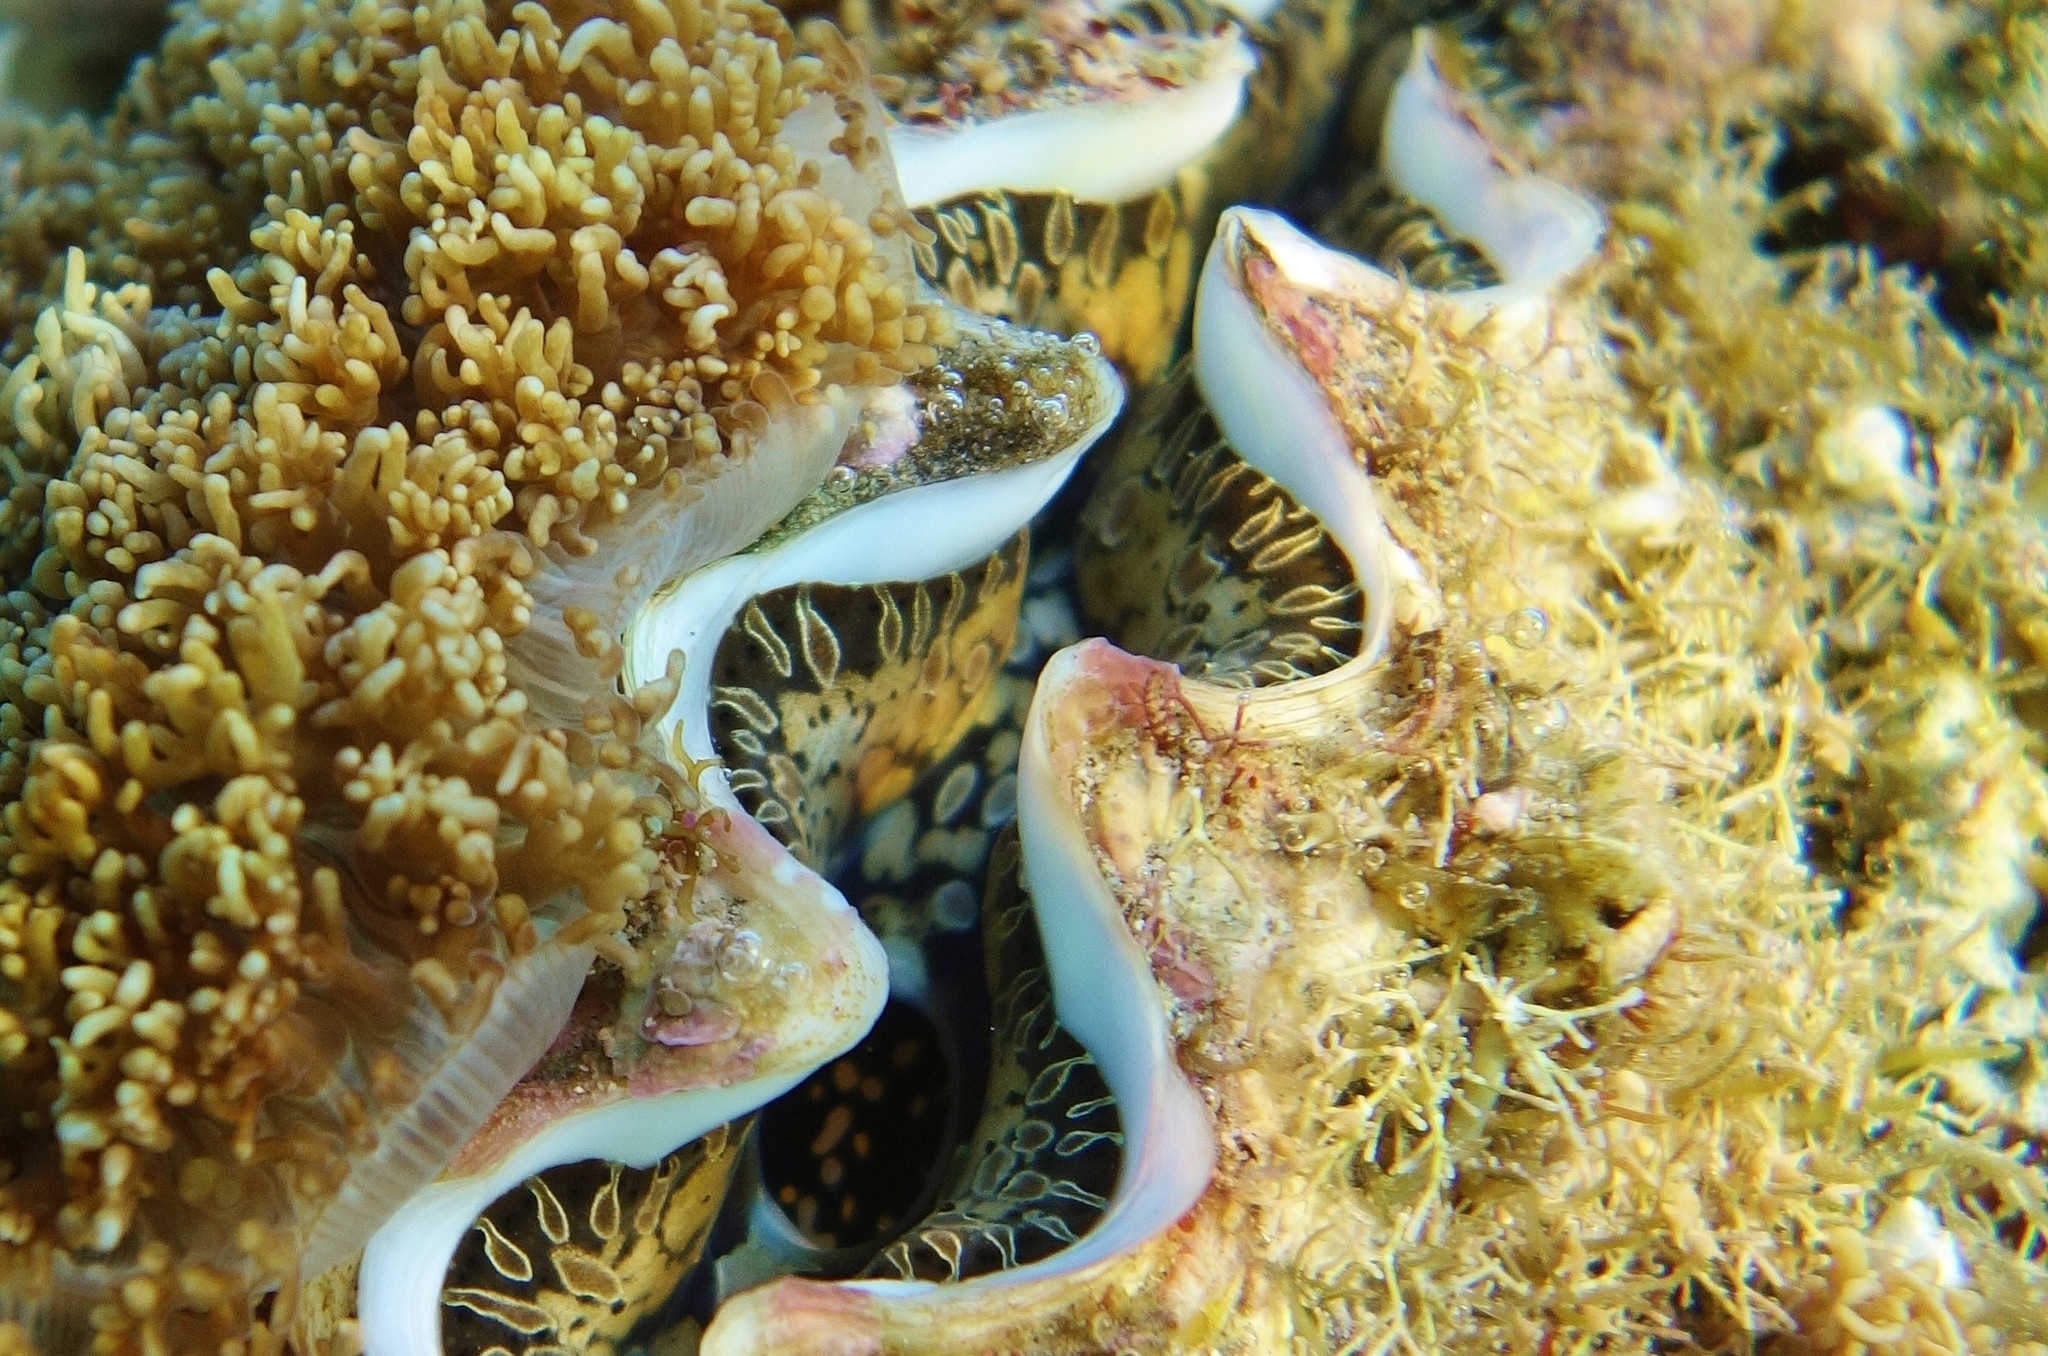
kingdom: Animalia
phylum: Mollusca
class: Bivalvia
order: Cardiida
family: Cardiidae
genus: Tridacna
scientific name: Tridacna noae
